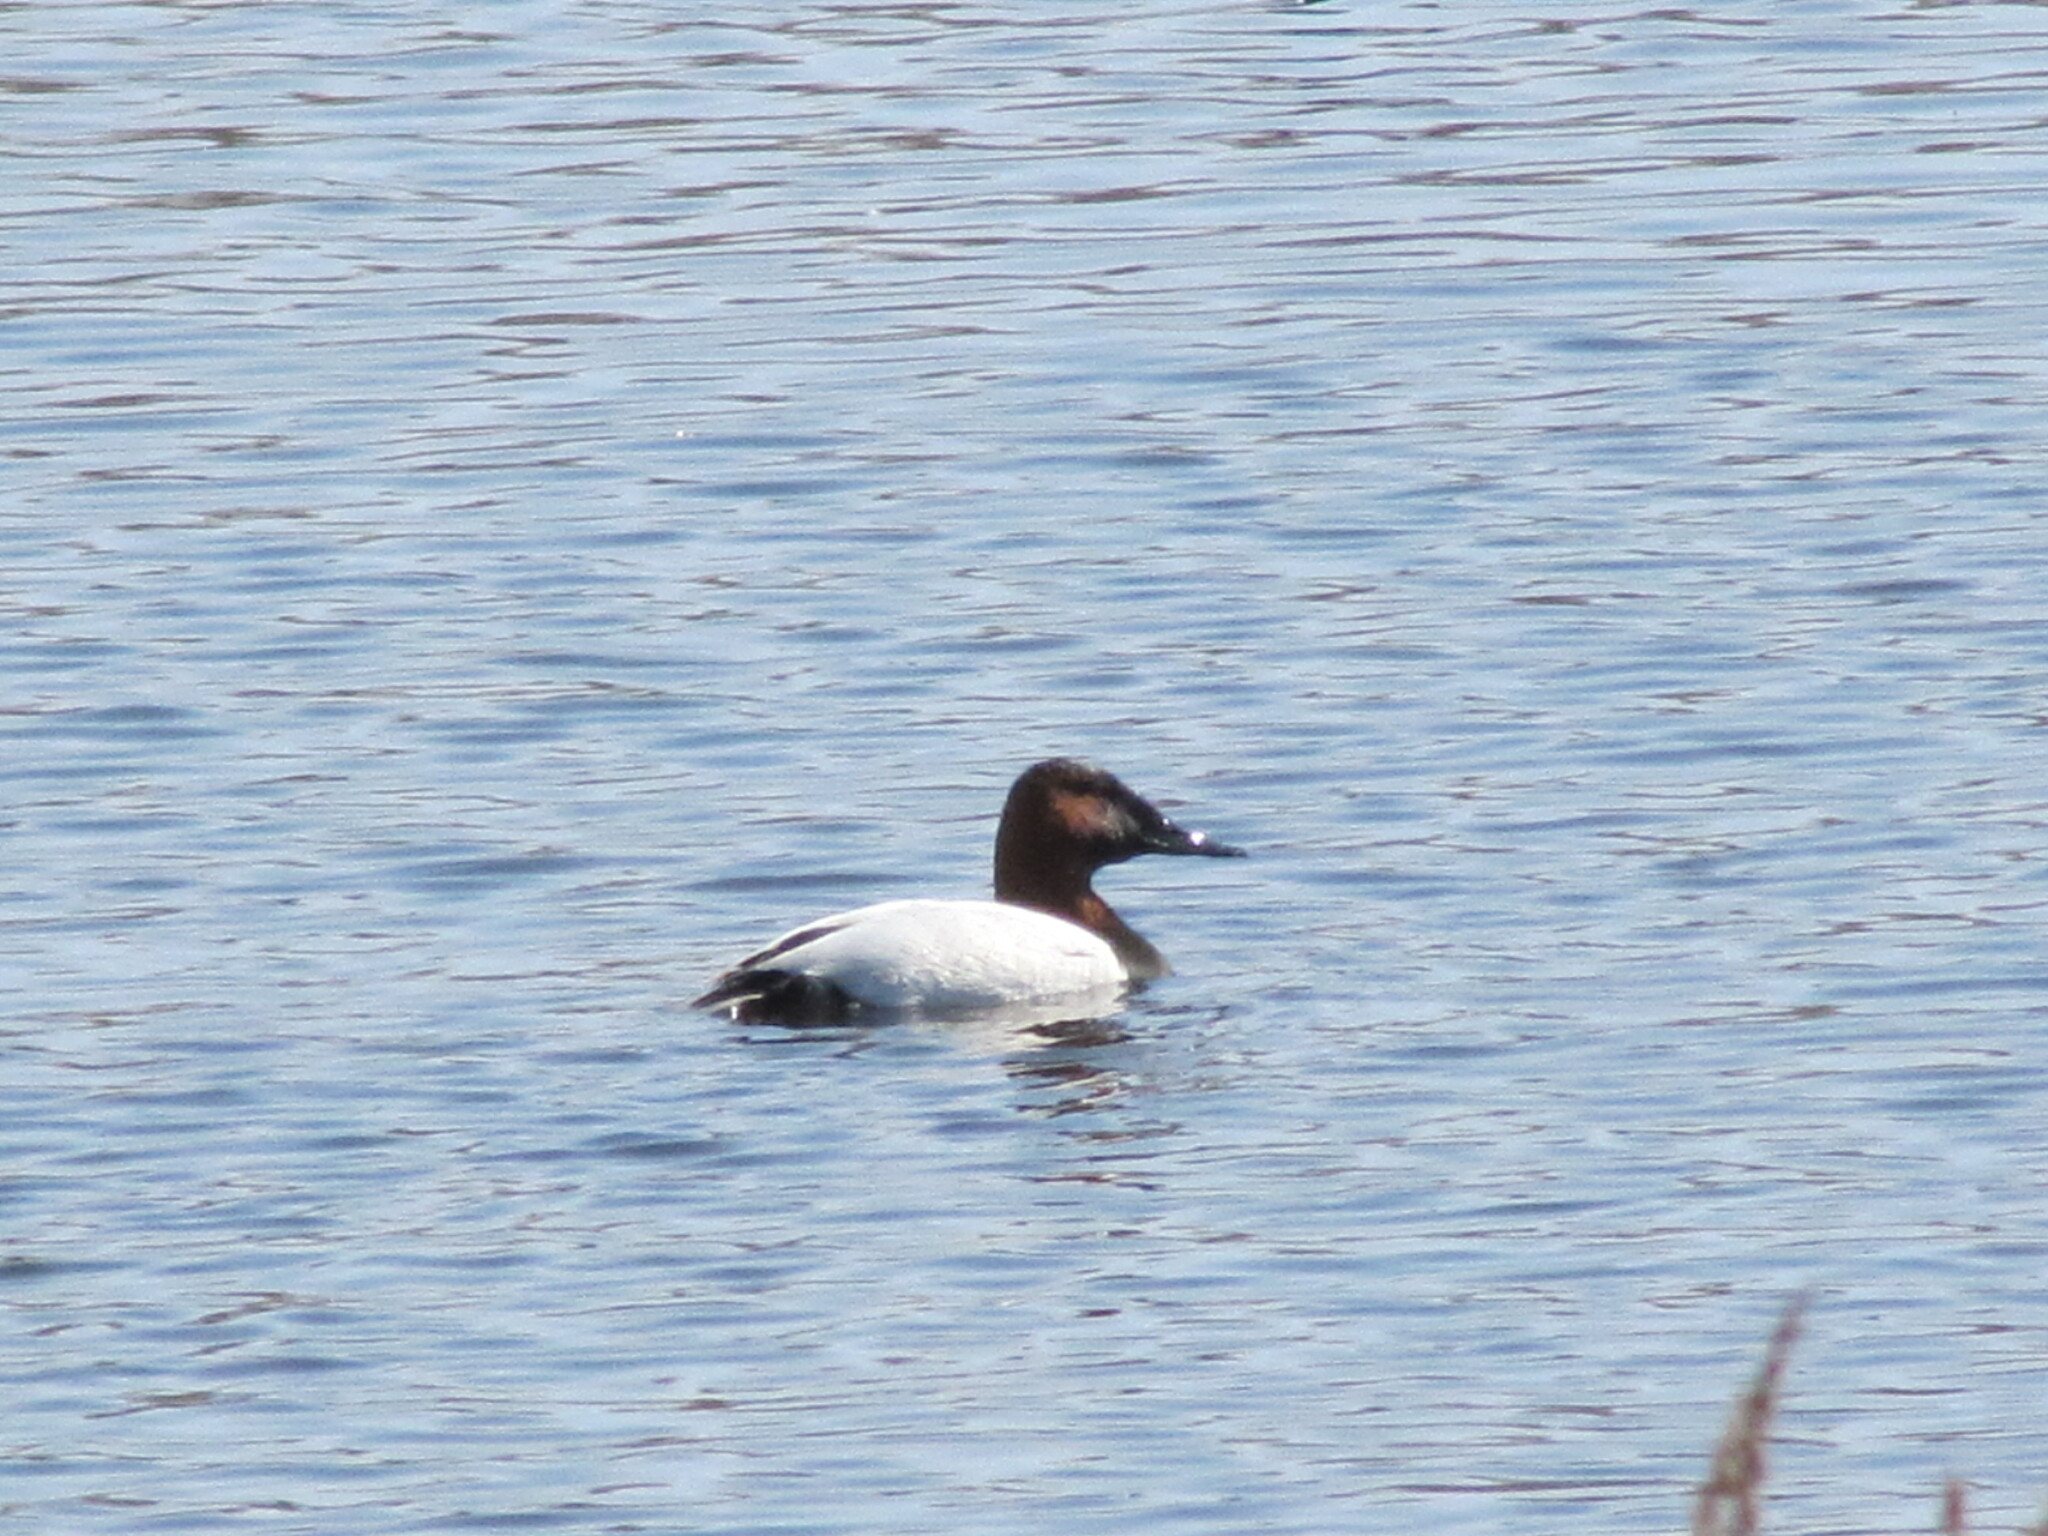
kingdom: Animalia
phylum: Chordata
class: Aves
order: Anseriformes
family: Anatidae
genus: Aythya
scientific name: Aythya valisineria
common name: Canvasback
